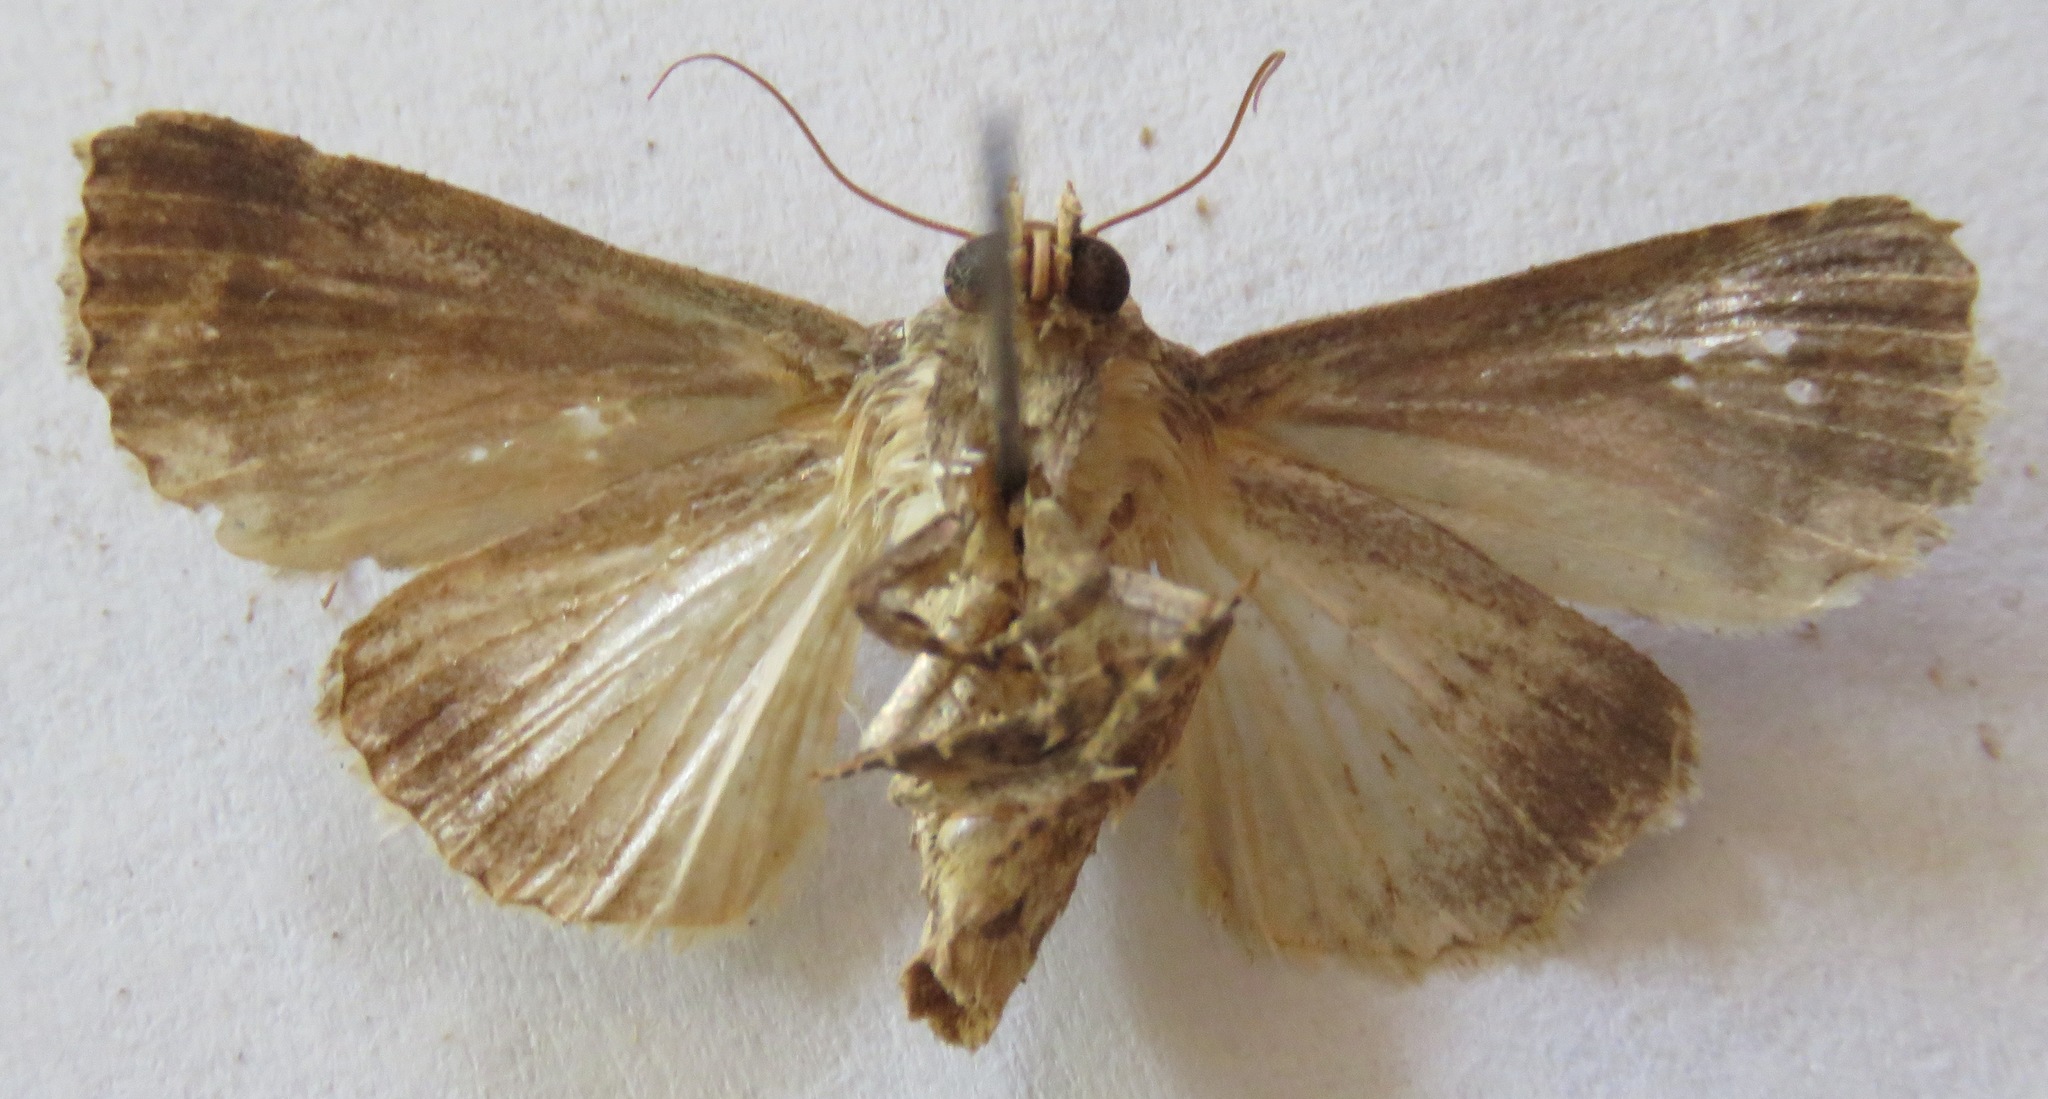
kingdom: Animalia
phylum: Arthropoda
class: Insecta
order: Lepidoptera
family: Noctuidae
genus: Condica
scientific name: Condica cupentia
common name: Splotched groundling
